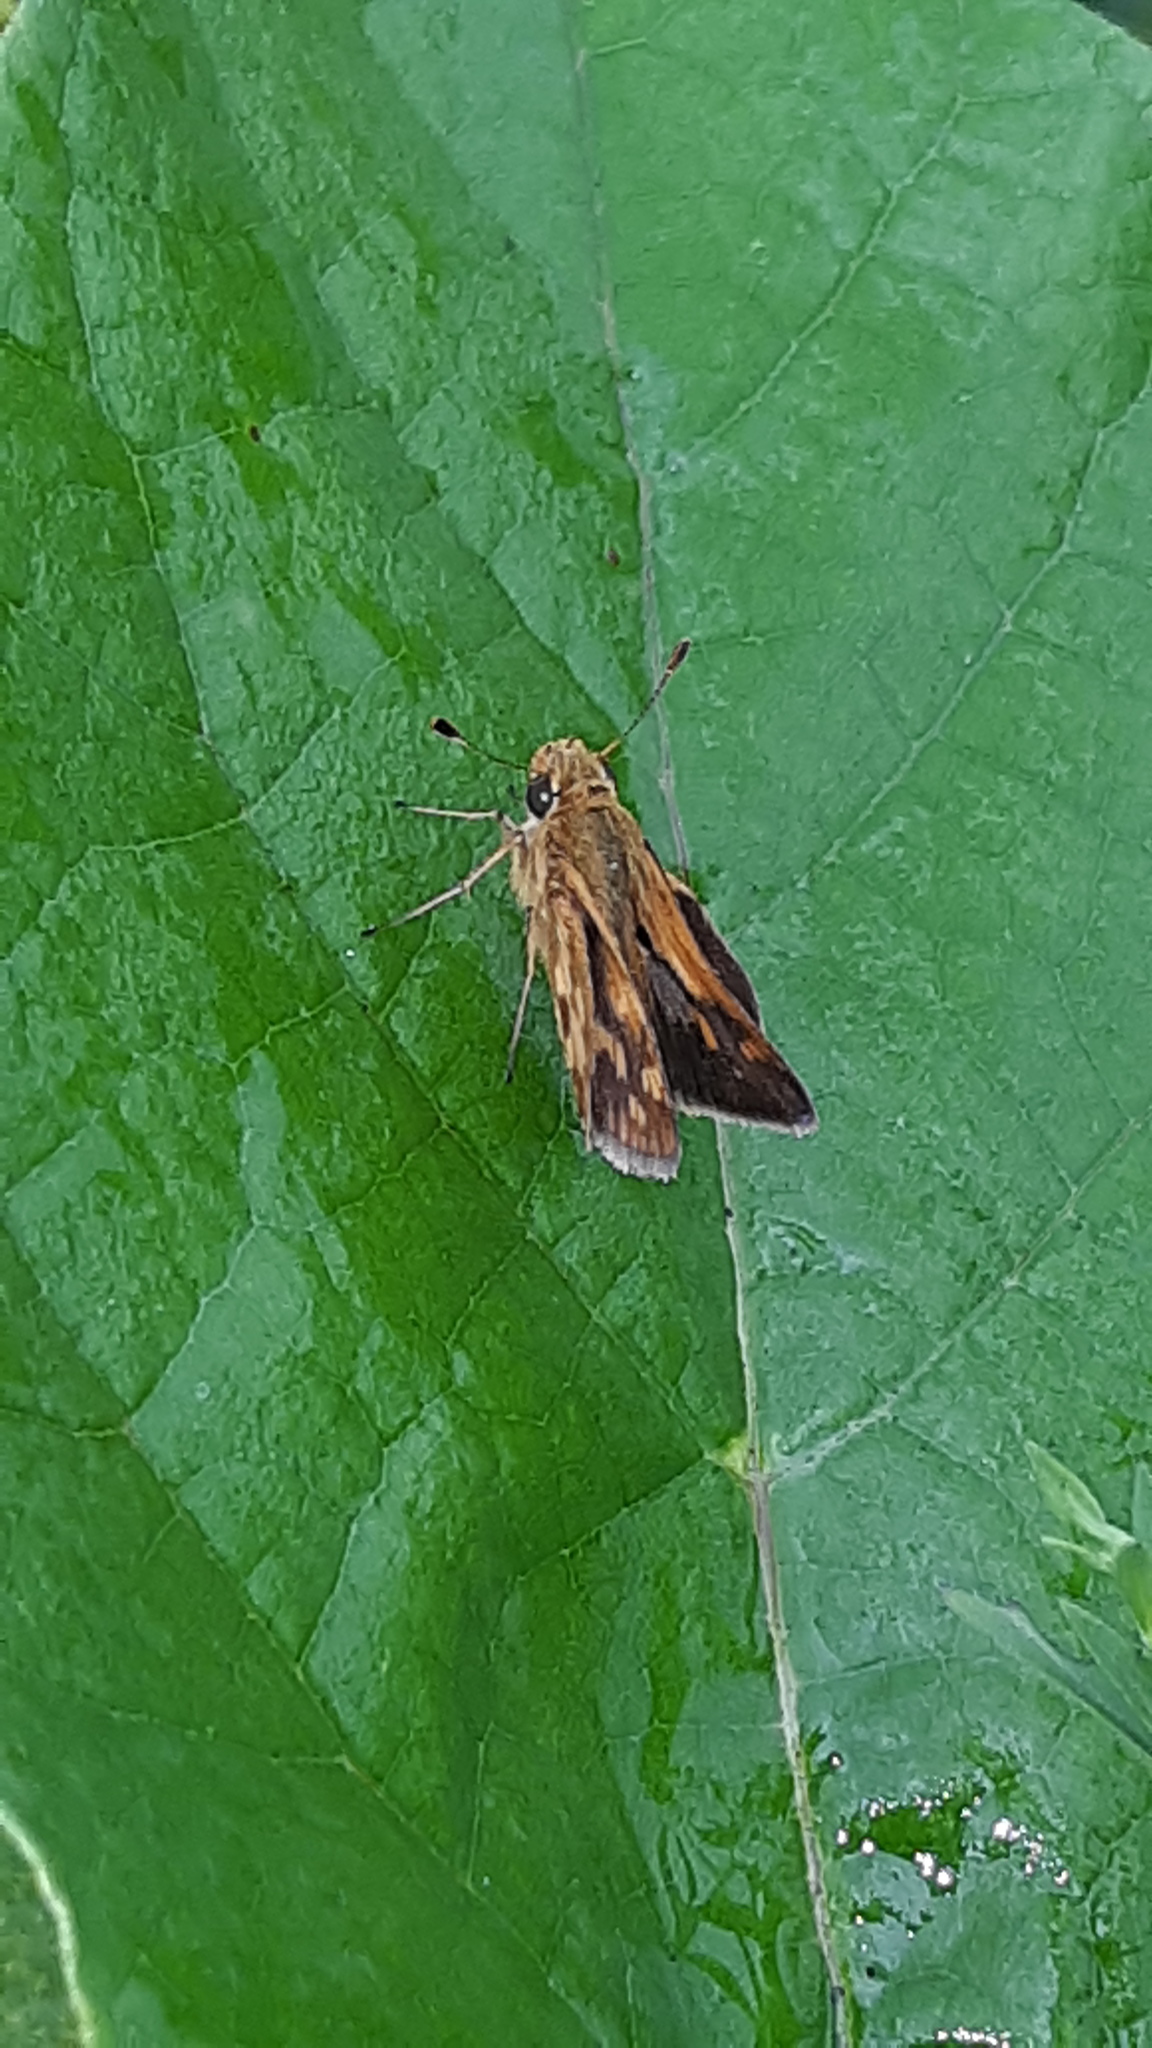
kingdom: Animalia
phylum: Arthropoda
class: Insecta
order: Lepidoptera
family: Hesperiidae
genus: Polites
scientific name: Polites coras
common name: Peck's skipper
